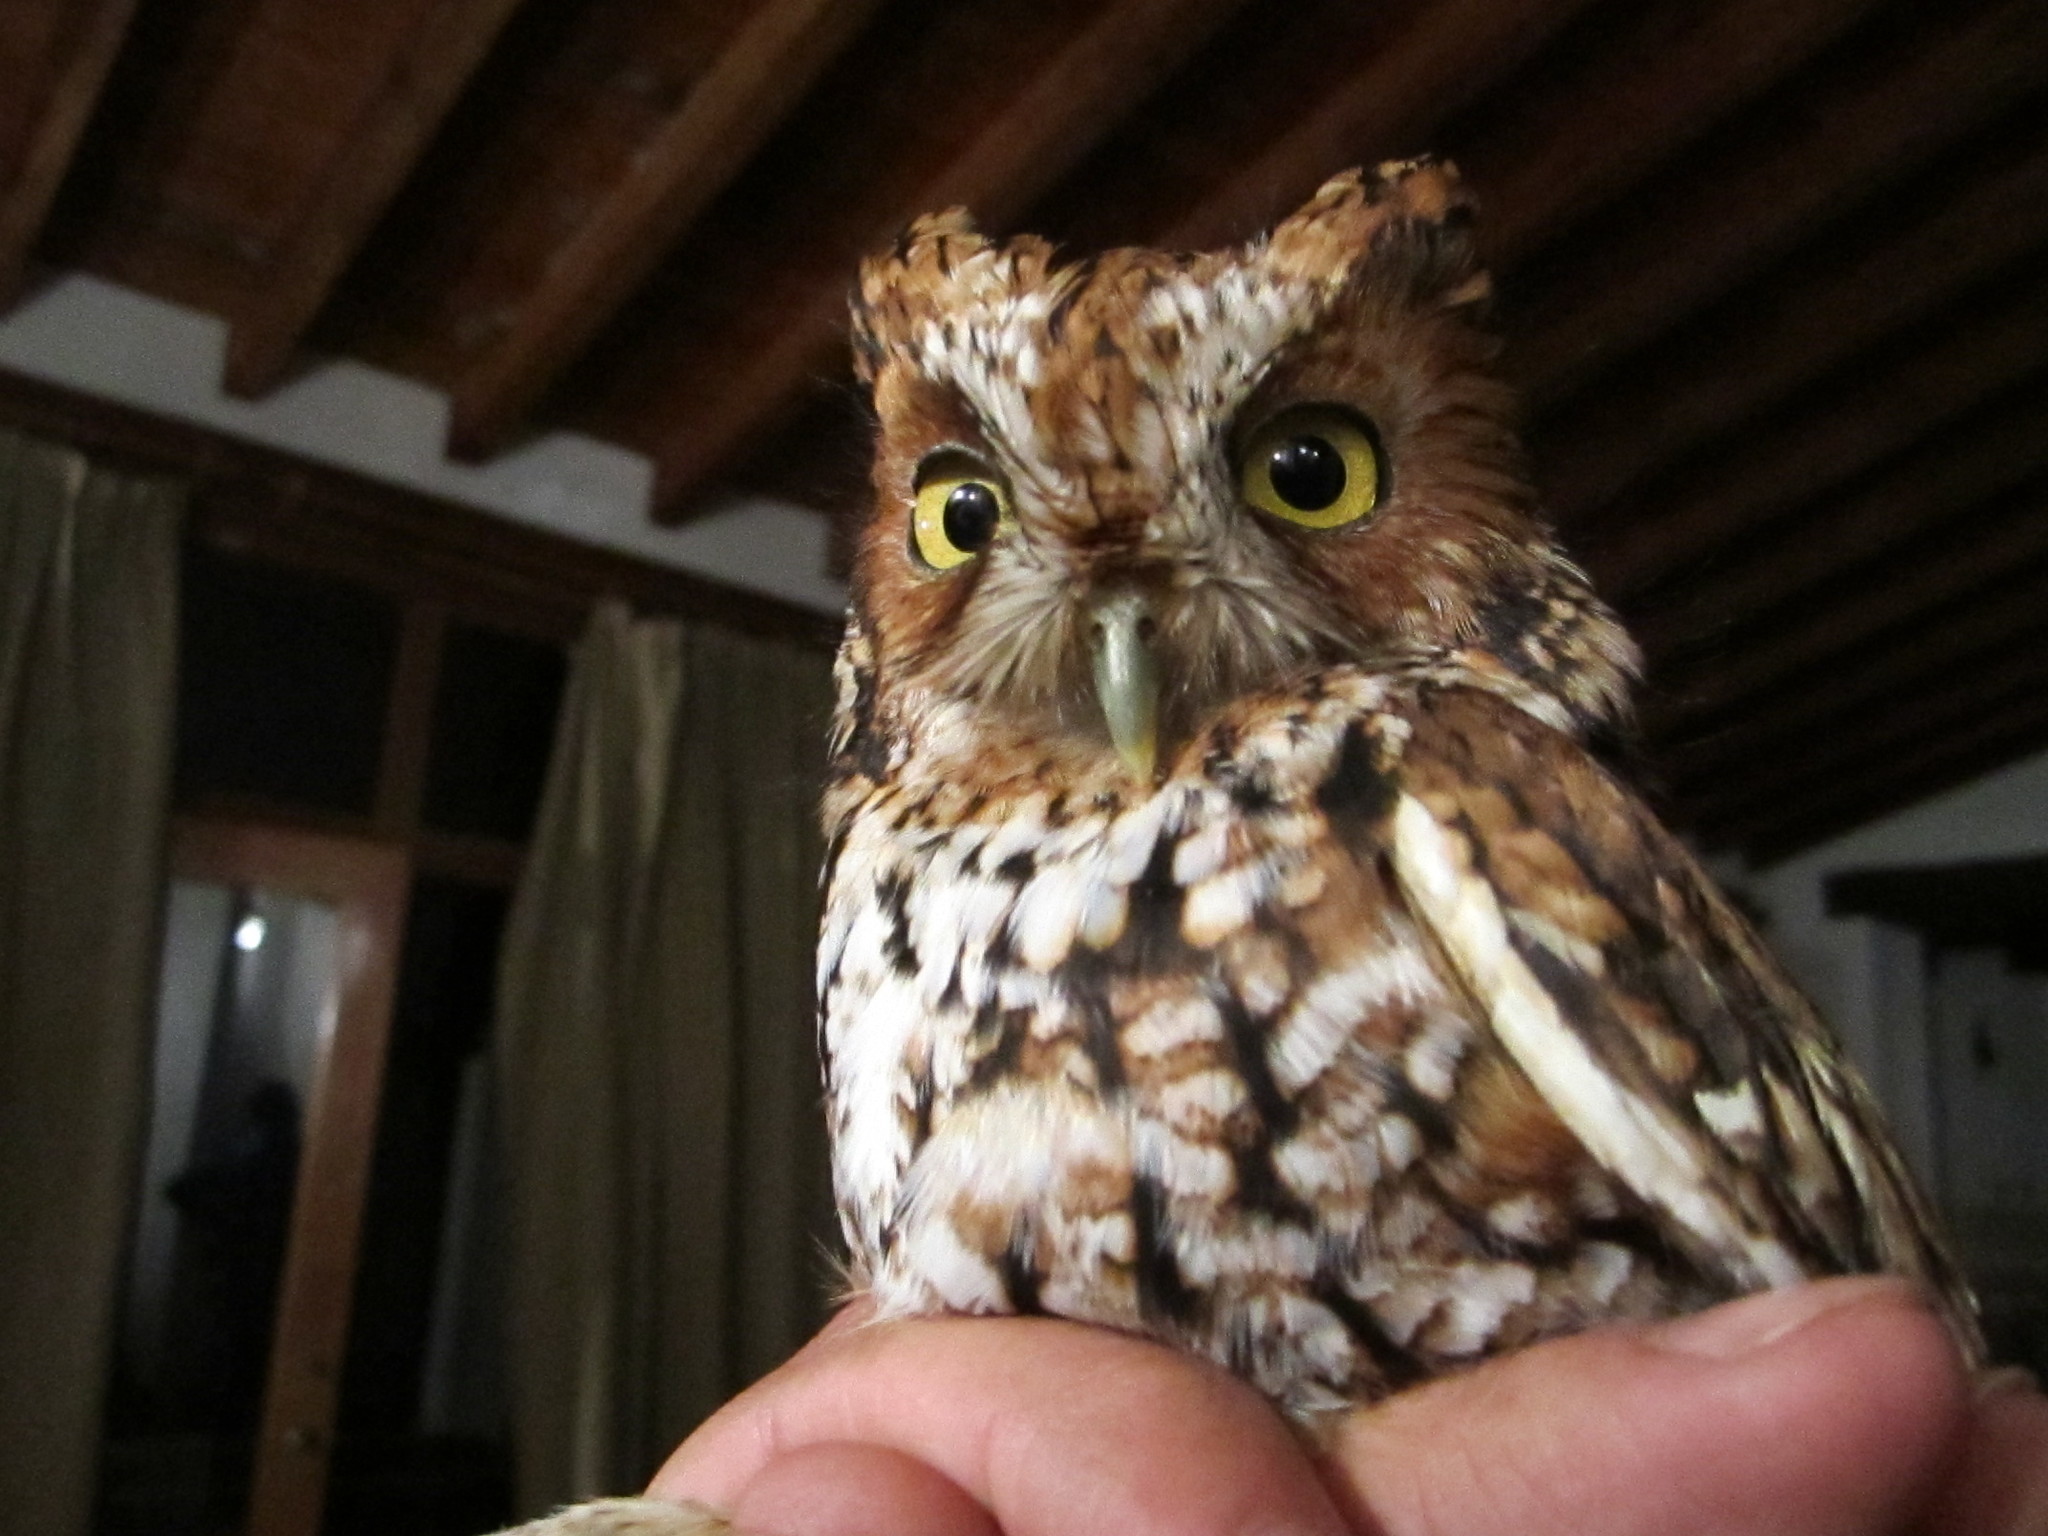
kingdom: Animalia
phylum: Chordata
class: Aves
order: Strigiformes
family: Strigidae
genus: Megascops
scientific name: Megascops trichopsis
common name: Whiskered screech-owl
